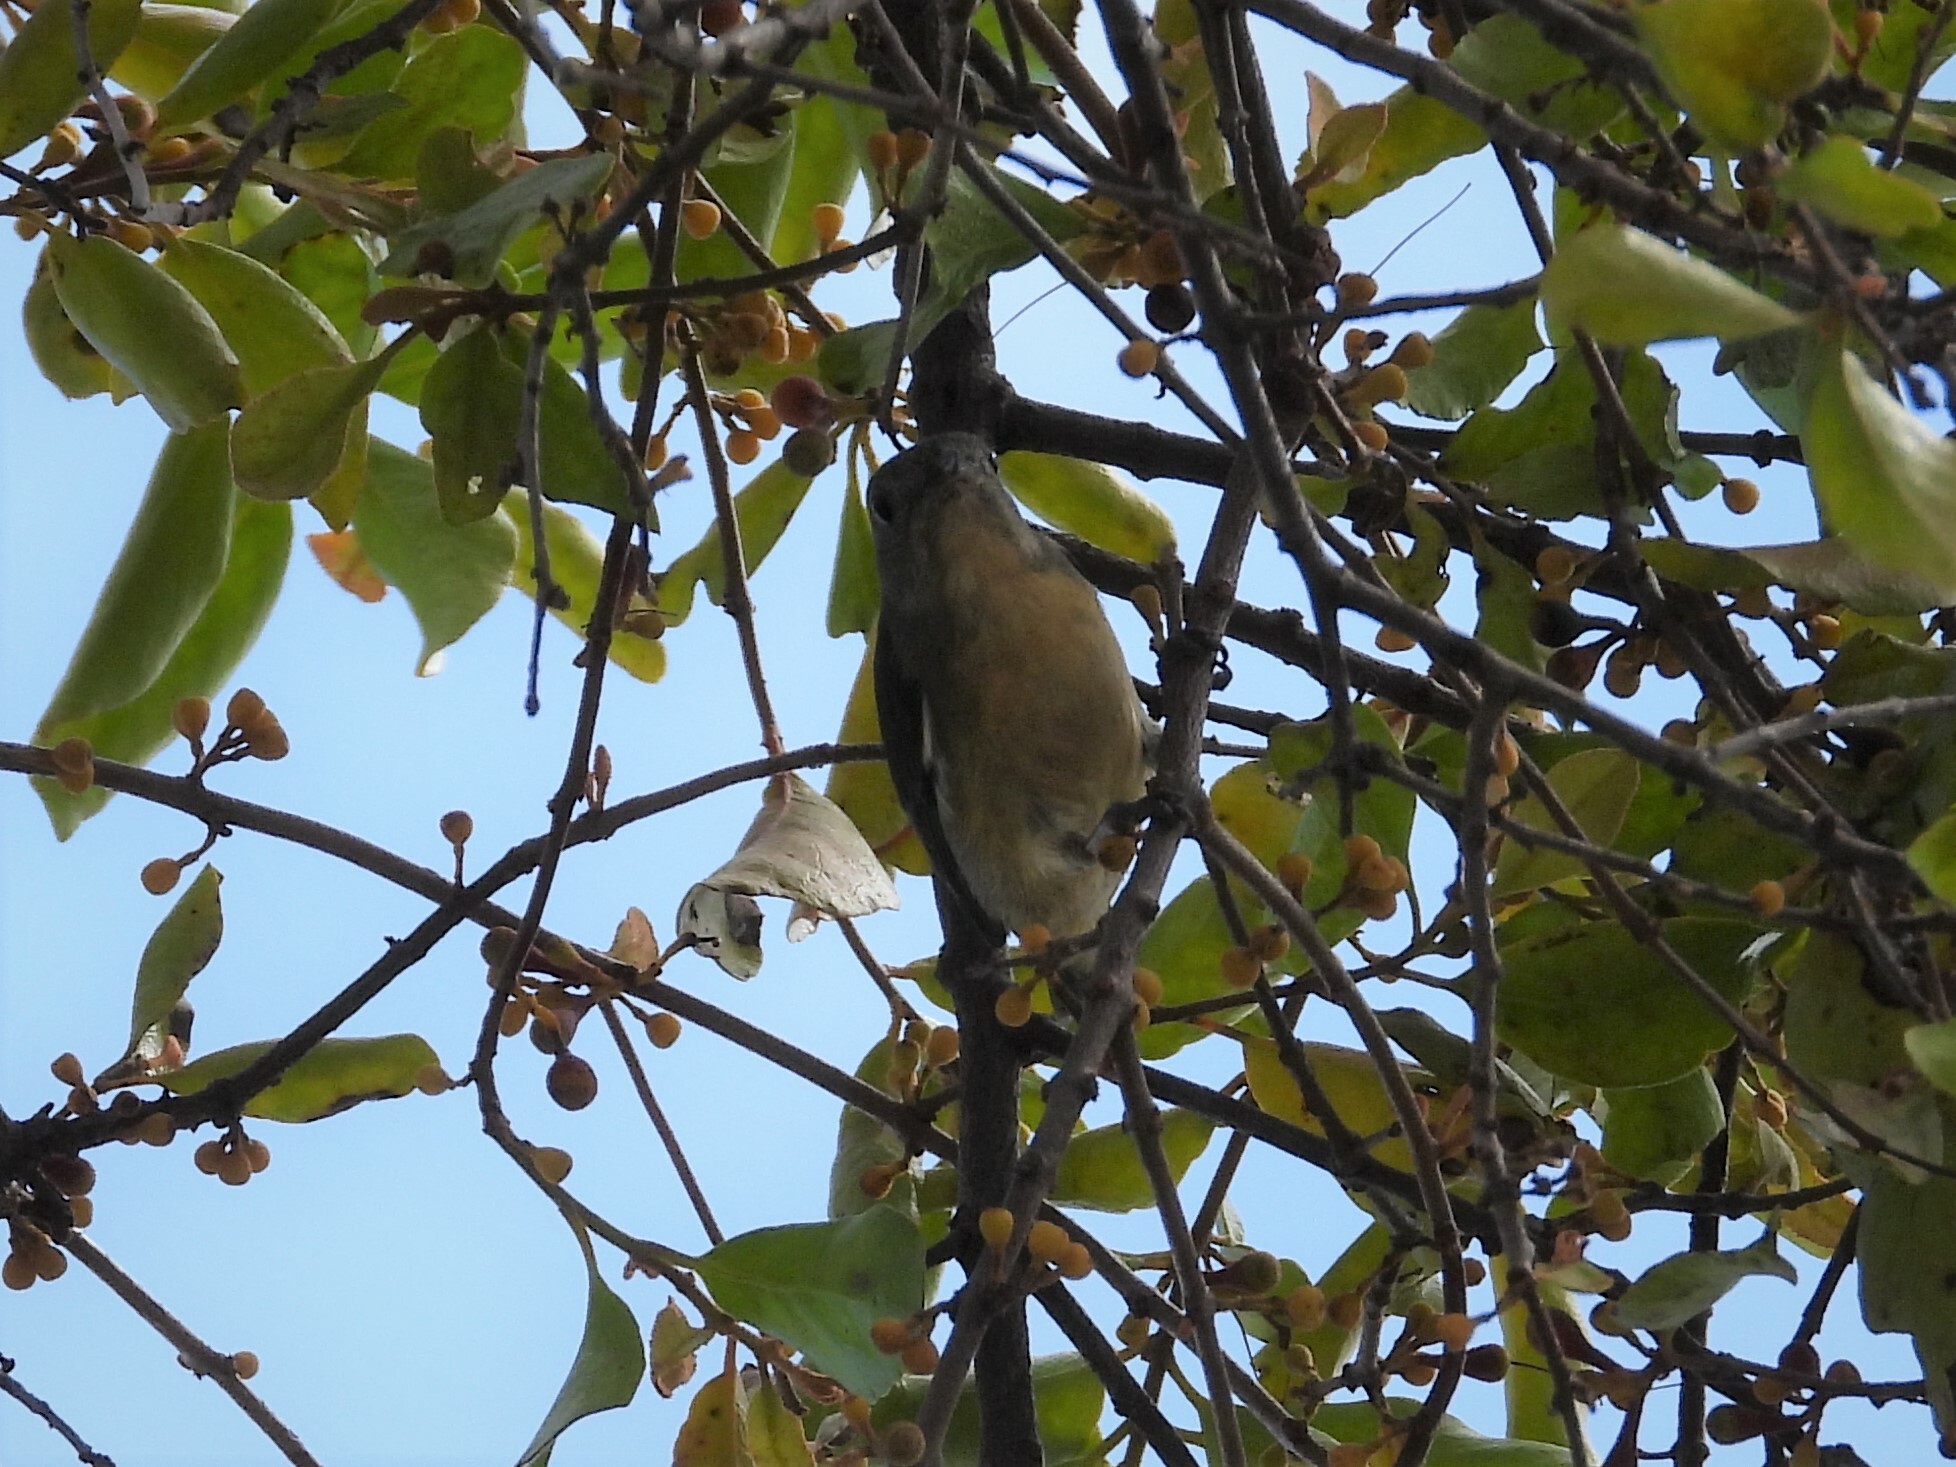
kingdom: Animalia
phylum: Chordata
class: Aves
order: Passeriformes
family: Dicaeidae
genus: Dicaeum
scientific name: Dicaeum ignipectus
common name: Fire-breasted flowerpecker
